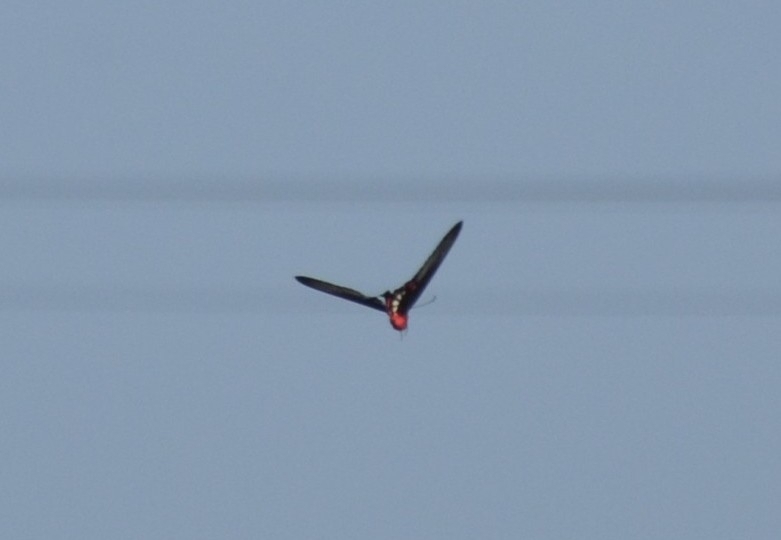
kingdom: Animalia
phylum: Arthropoda
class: Insecta
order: Lepidoptera
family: Papilionidae
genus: Pachliopta
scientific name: Pachliopta aristolochiae
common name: Common rose
